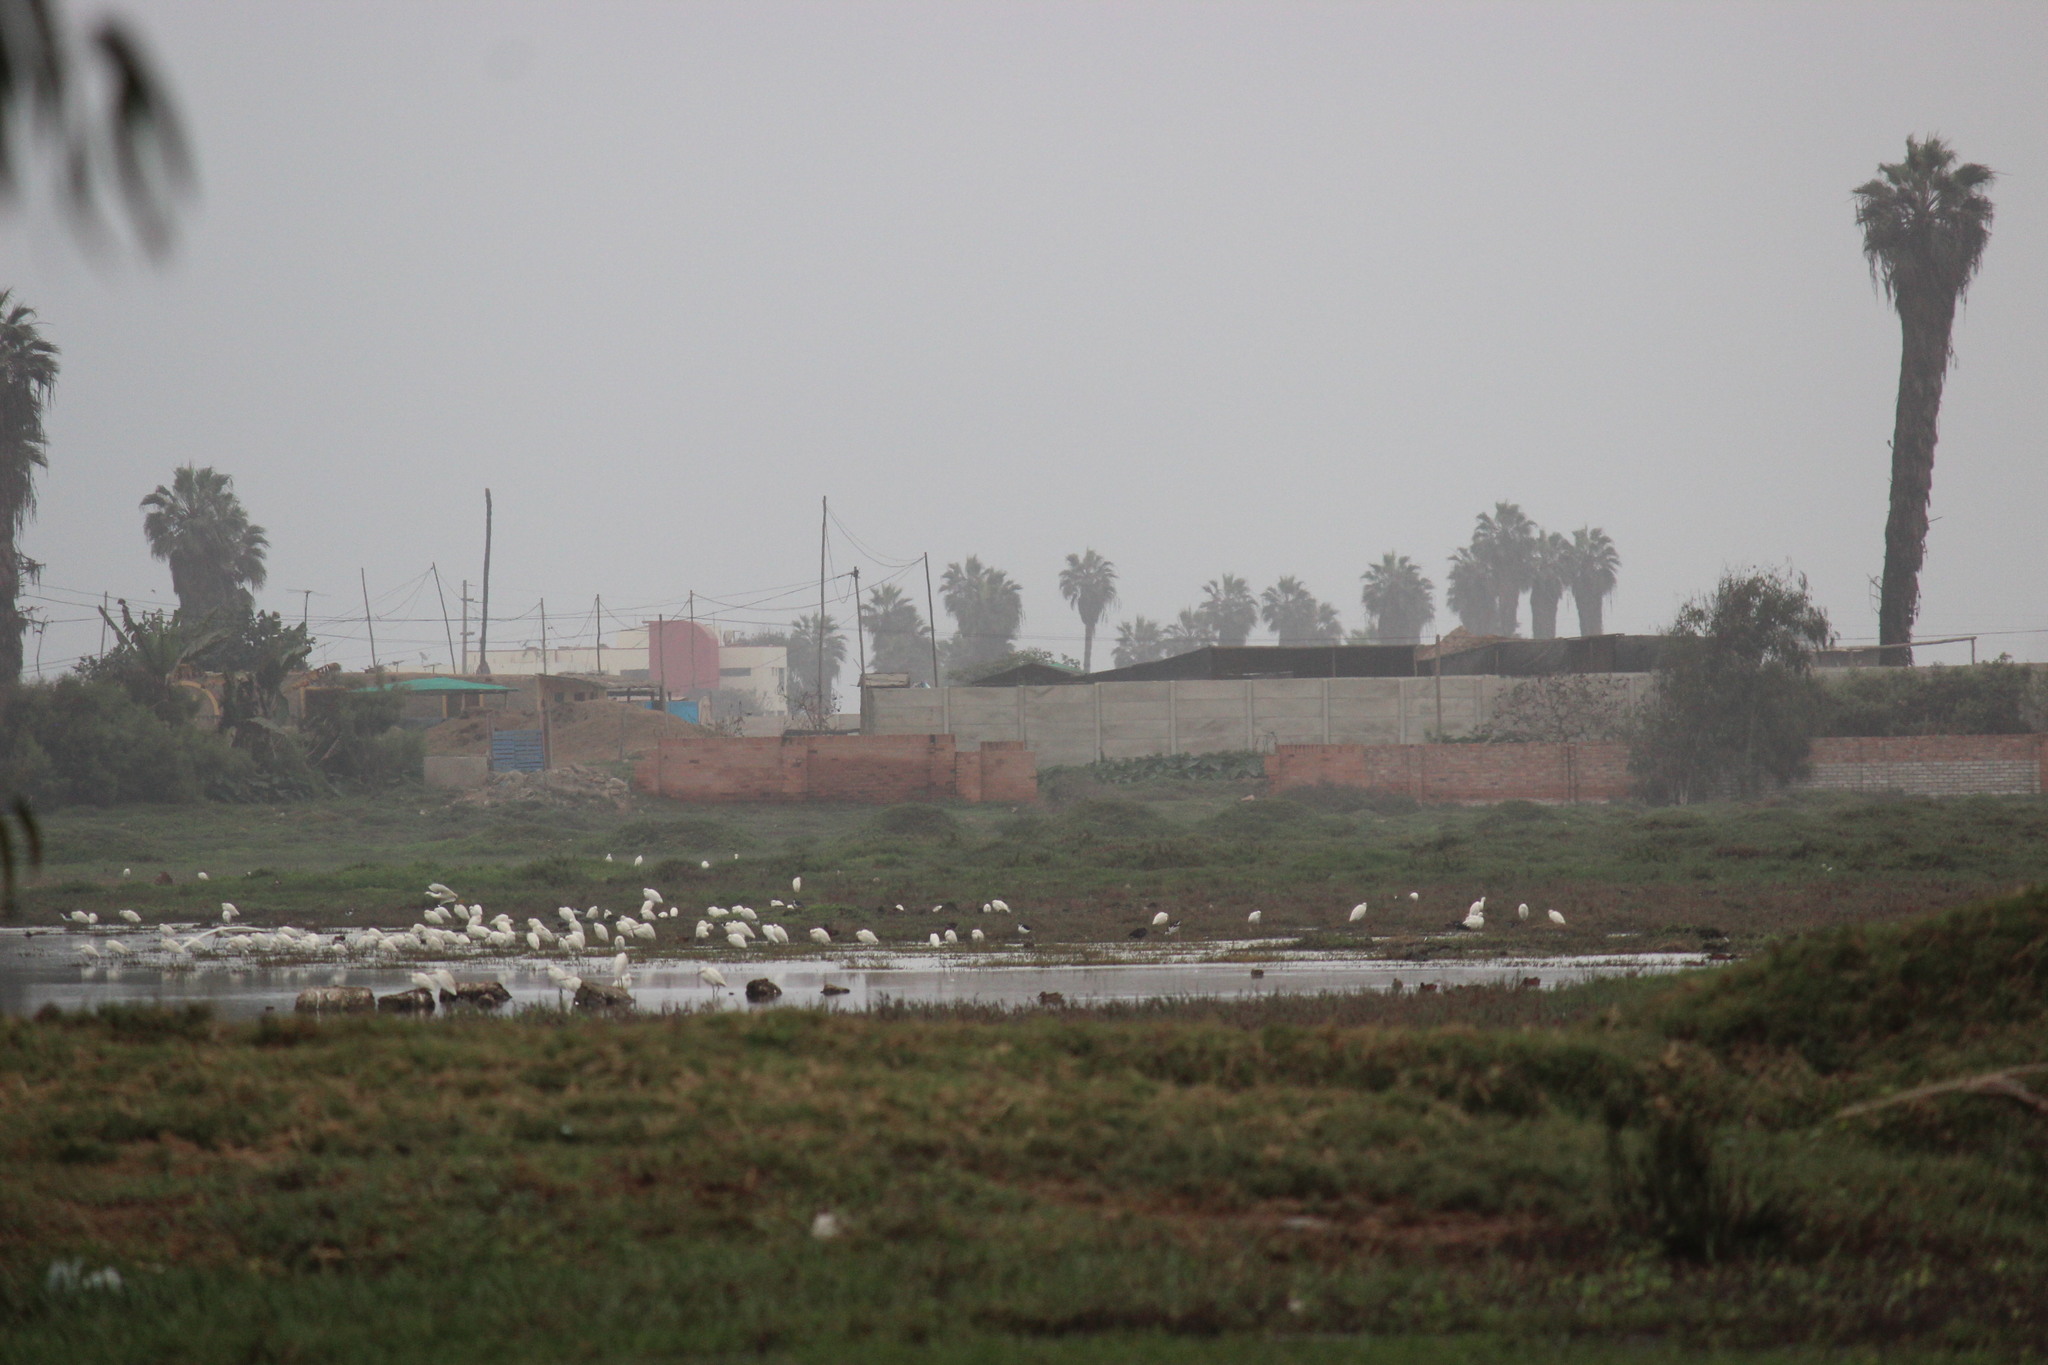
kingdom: Animalia
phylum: Chordata
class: Aves
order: Pelecaniformes
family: Ardeidae
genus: Egretta
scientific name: Egretta thula
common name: Snowy egret
